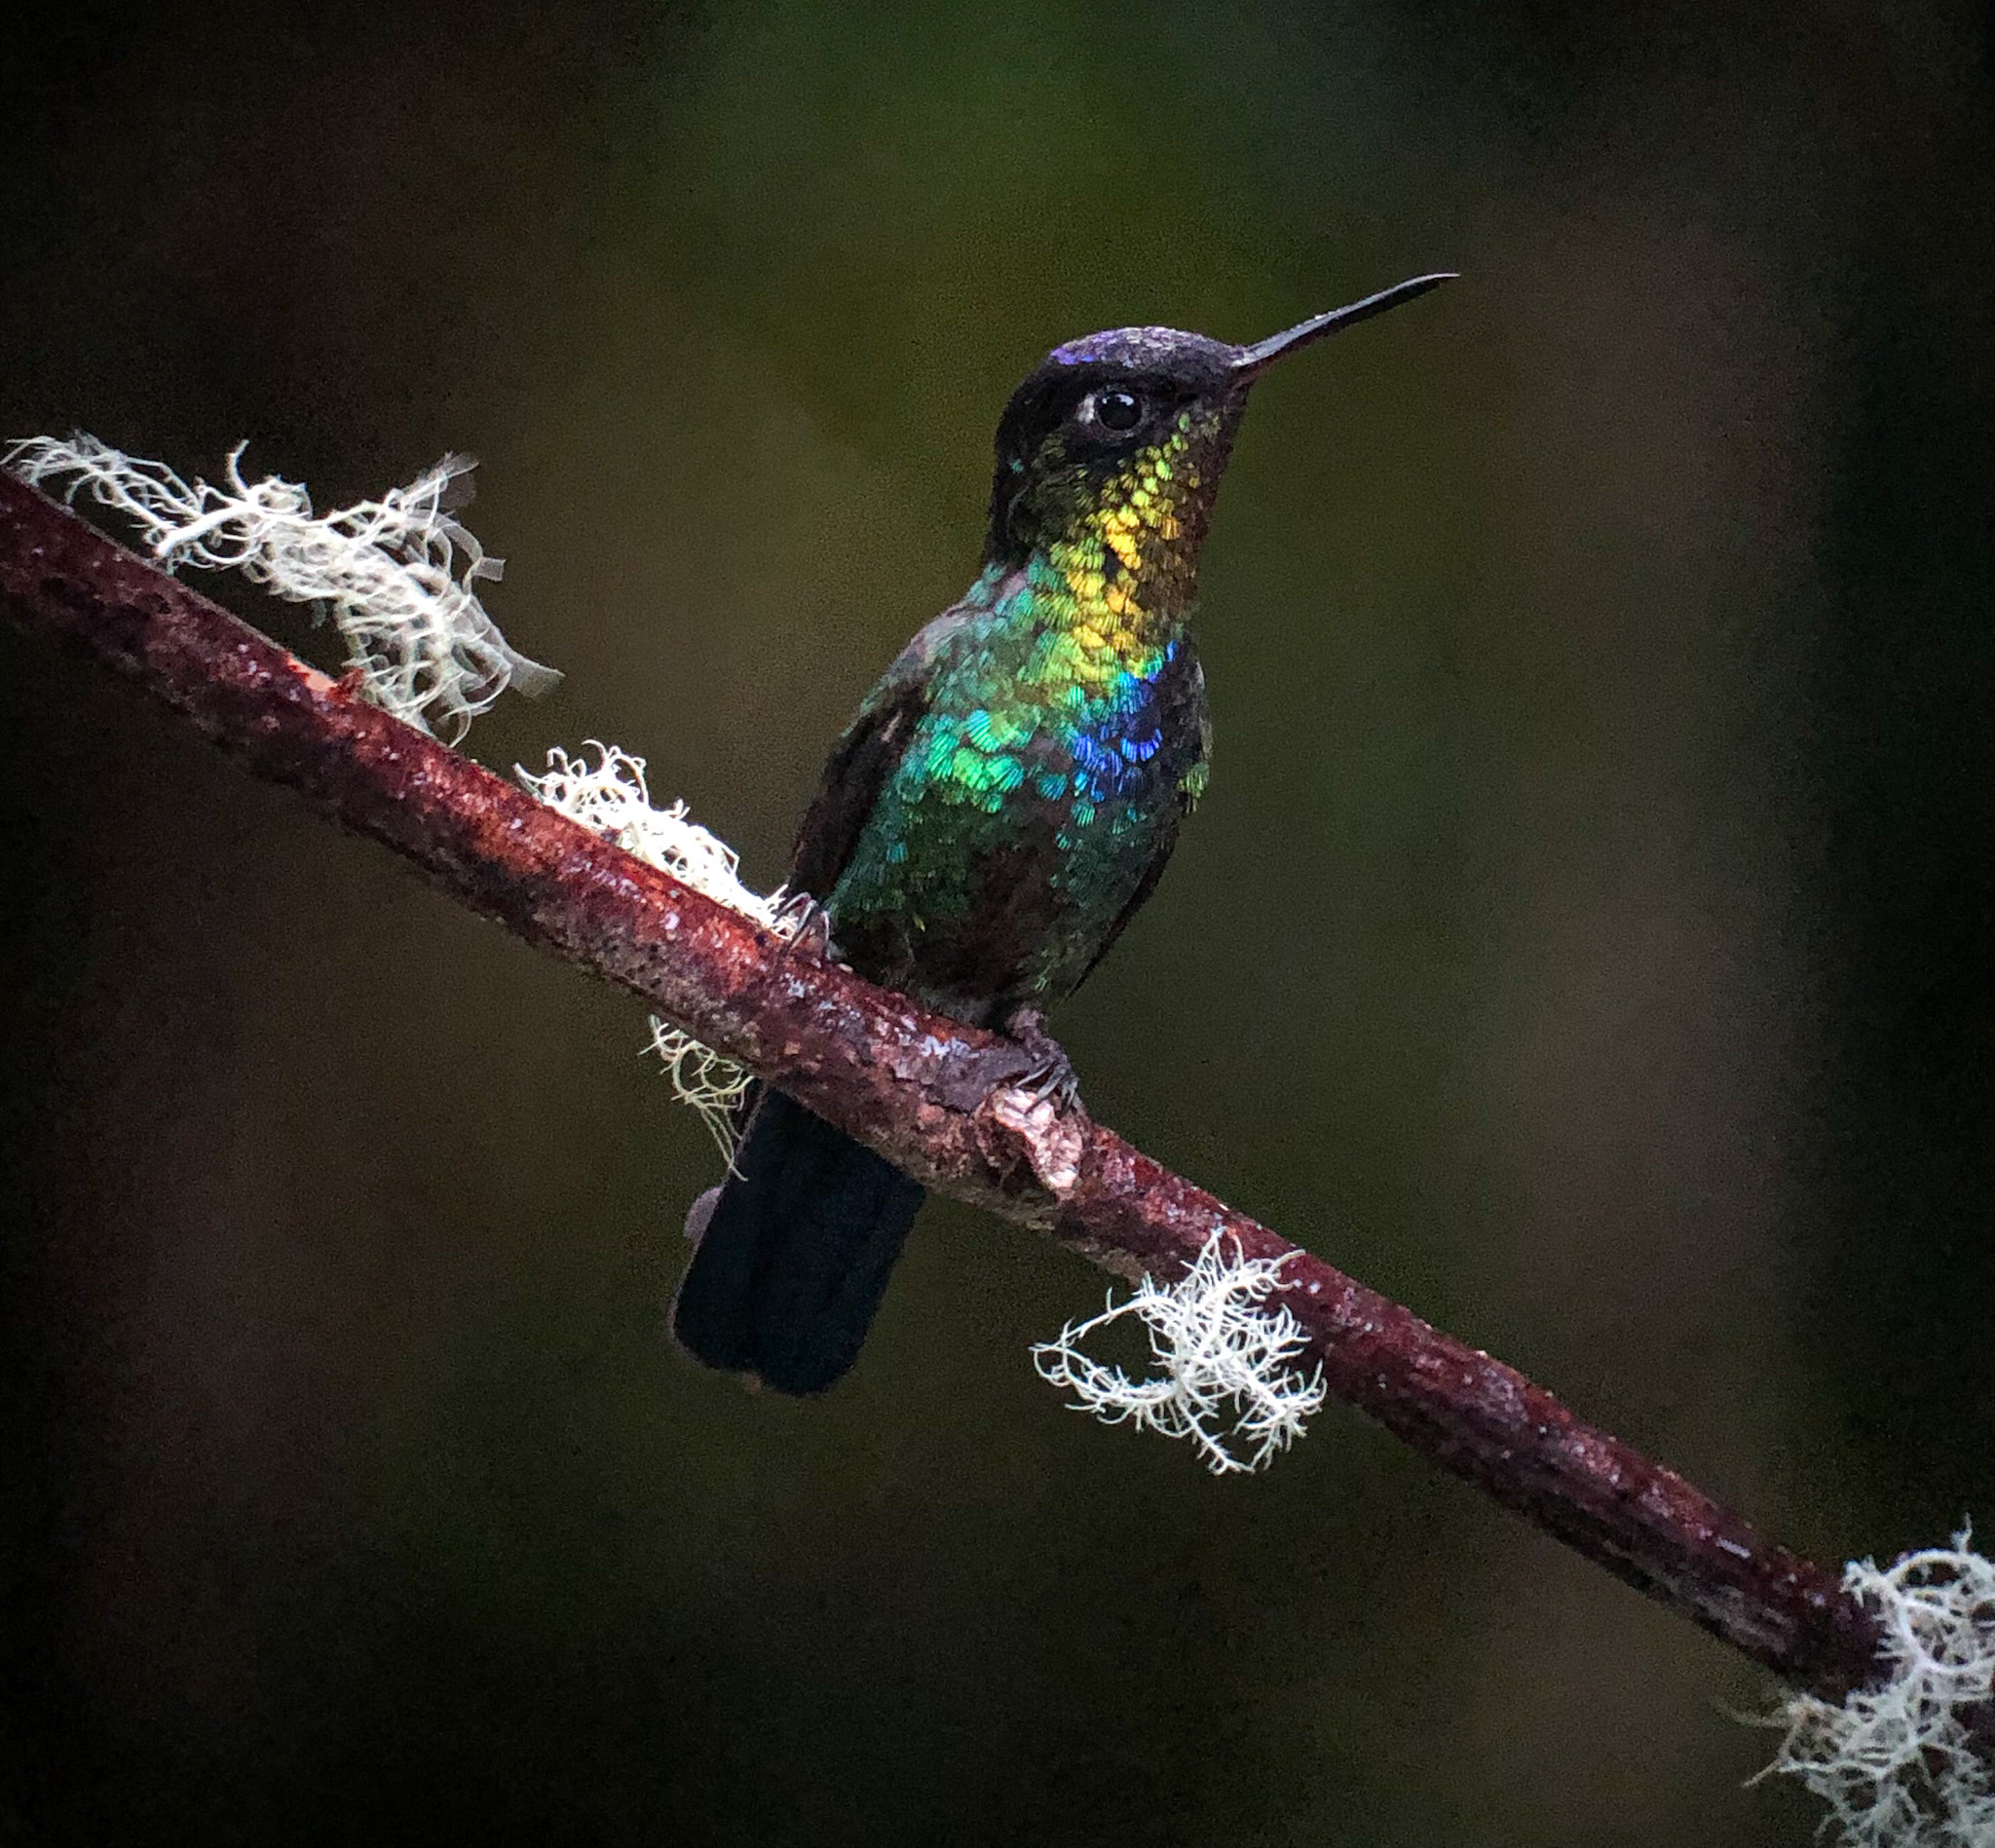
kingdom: Animalia
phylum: Chordata
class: Aves
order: Apodiformes
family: Trochilidae
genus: Panterpe
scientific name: Panterpe insignis
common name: Fiery-throated hummingbird
